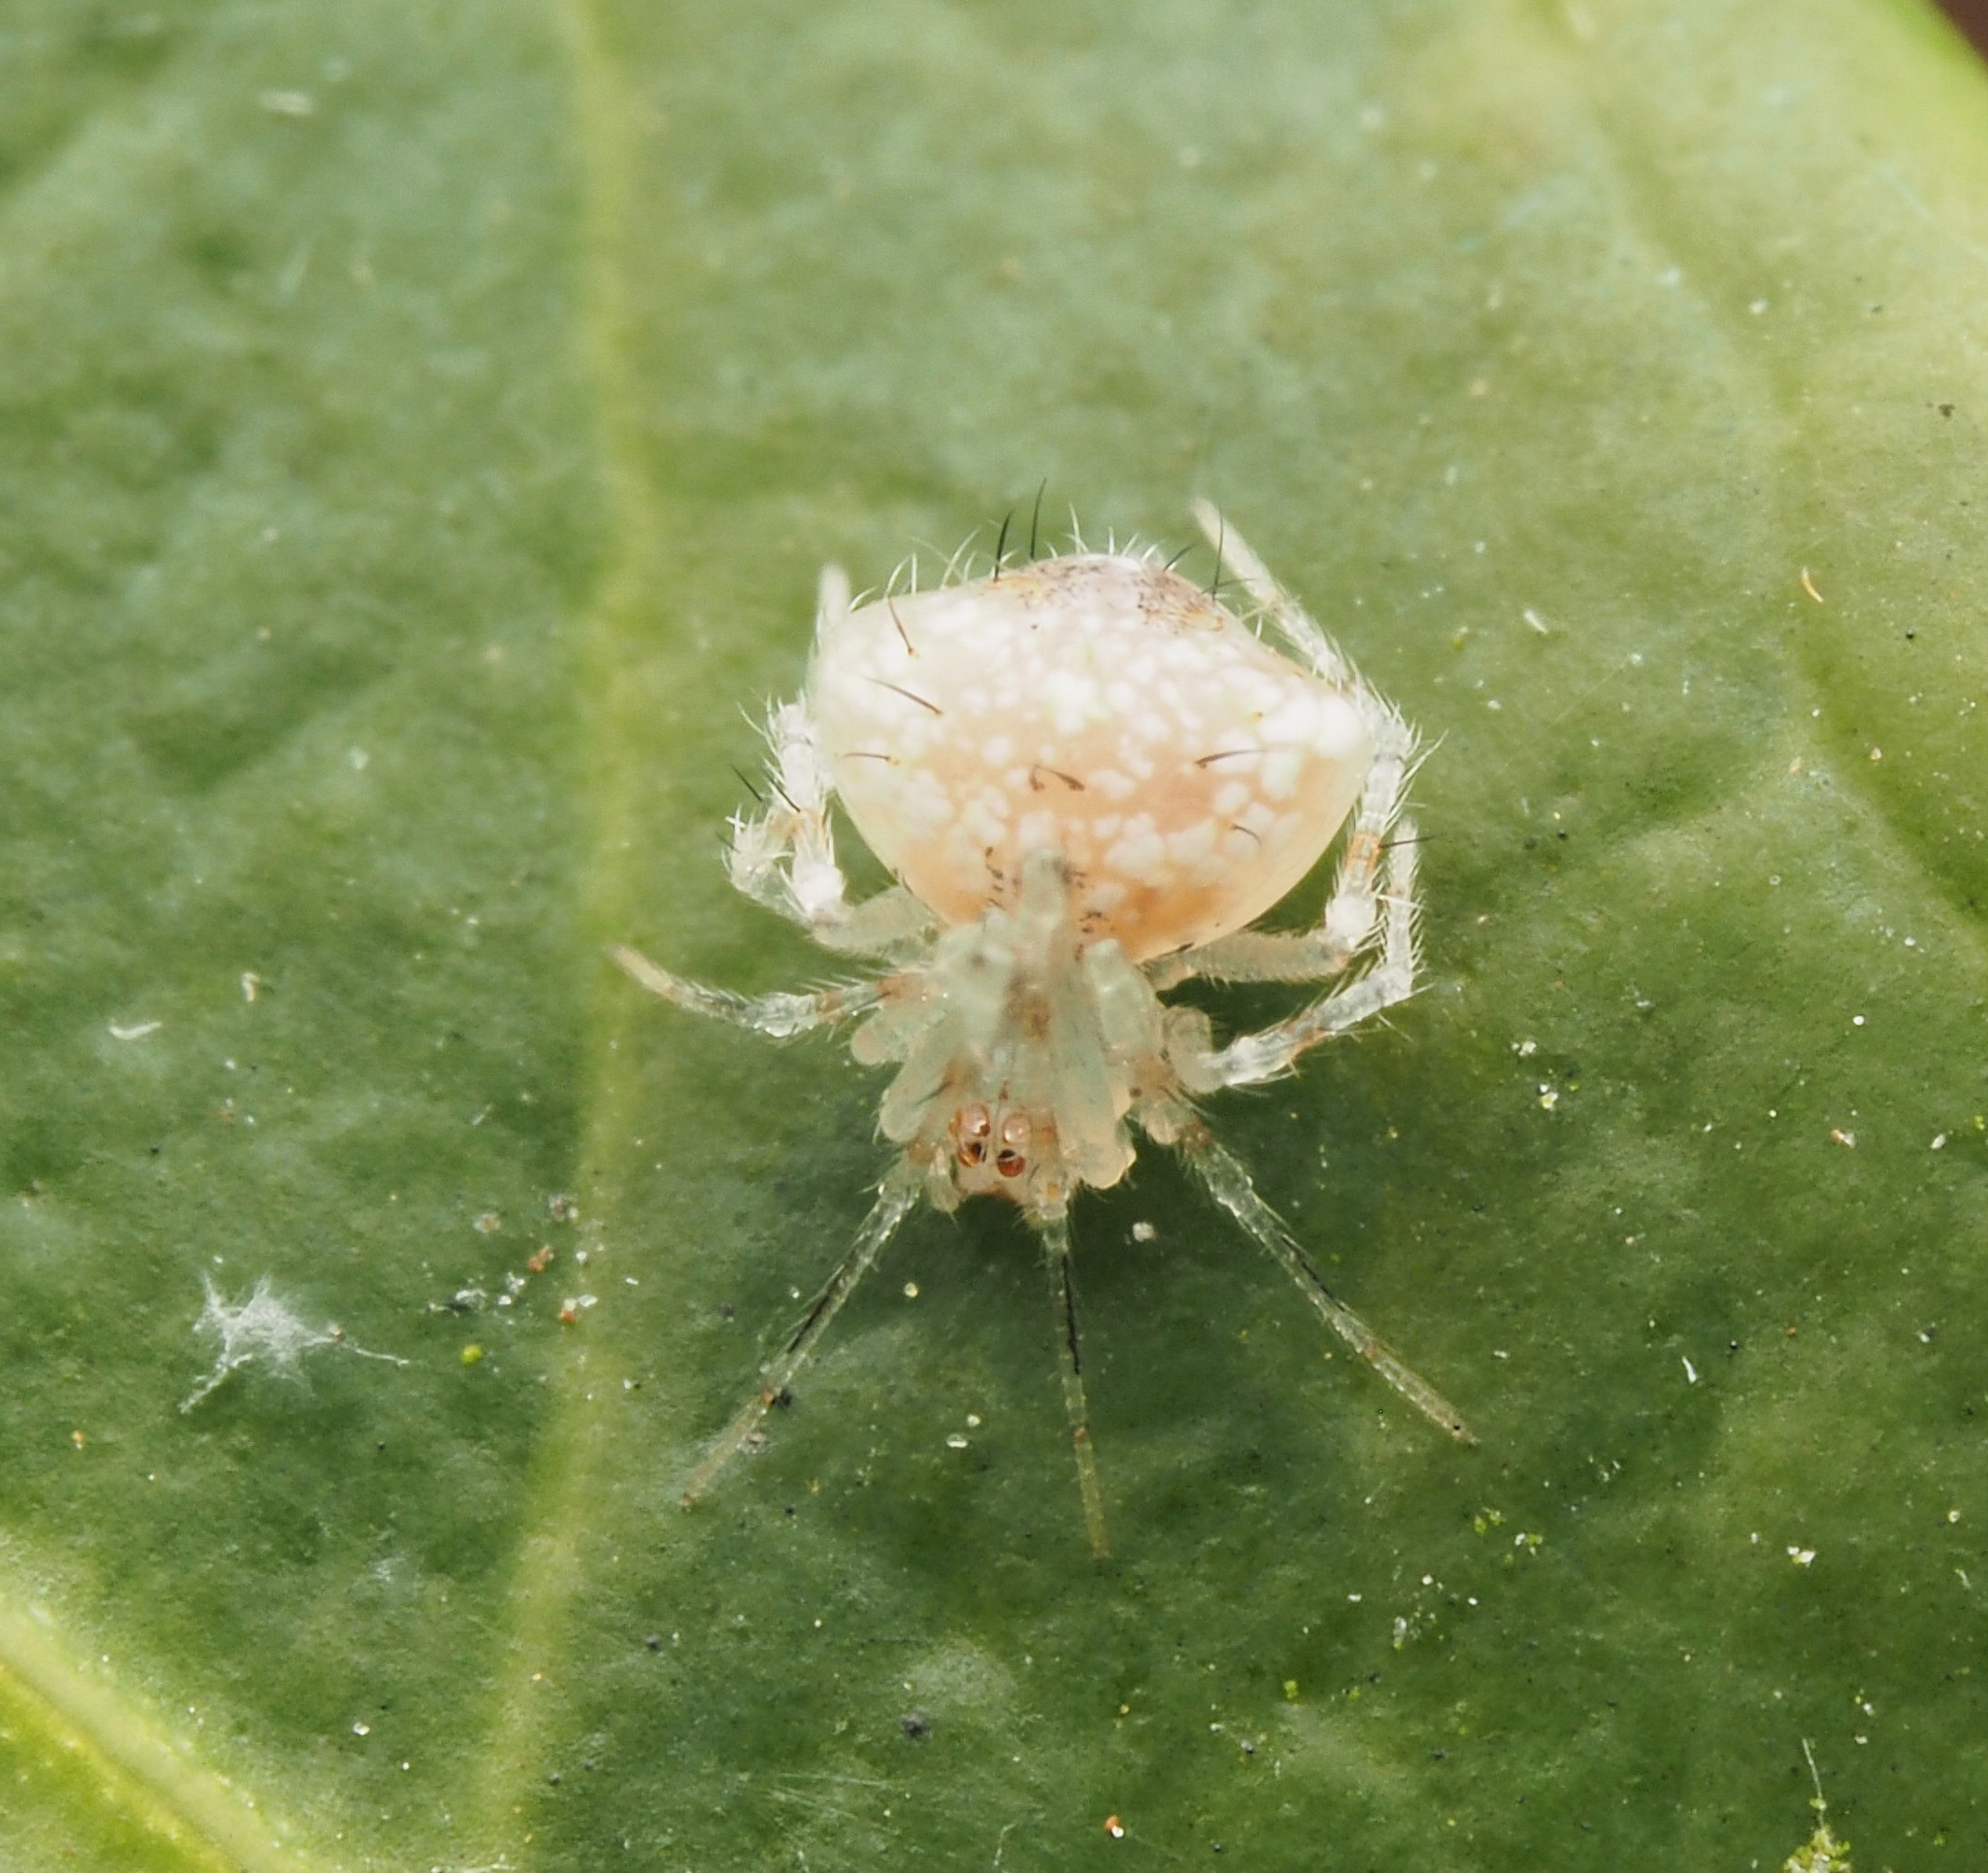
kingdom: Animalia
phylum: Arthropoda
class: Arachnida
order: Araneae
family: Theridiidae
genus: Chrysso
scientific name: Chrysso
